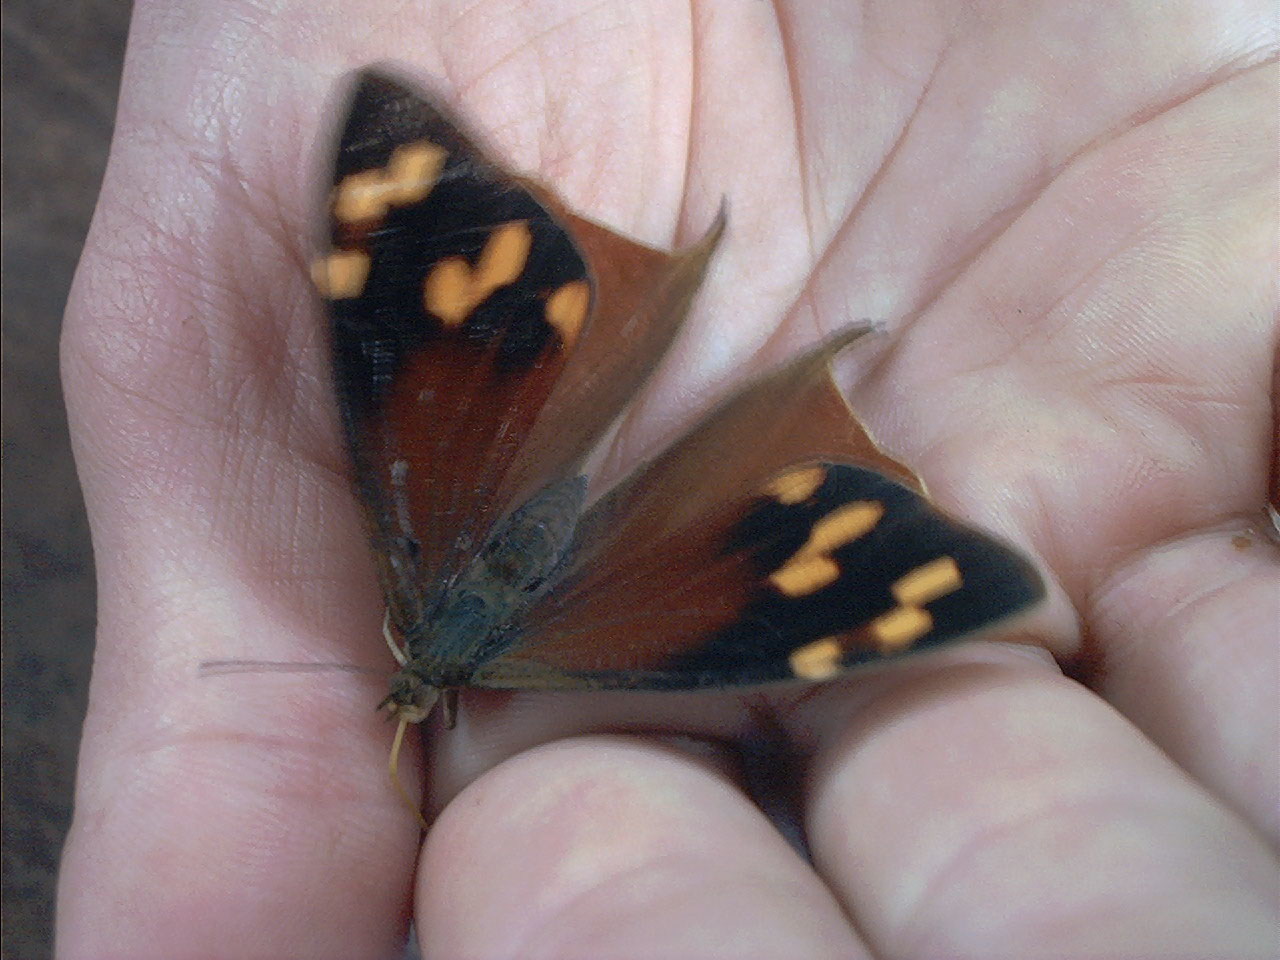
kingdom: Animalia
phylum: Arthropoda
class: Insecta
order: Lepidoptera
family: Nymphalidae
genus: Corades
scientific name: Corades enyo
